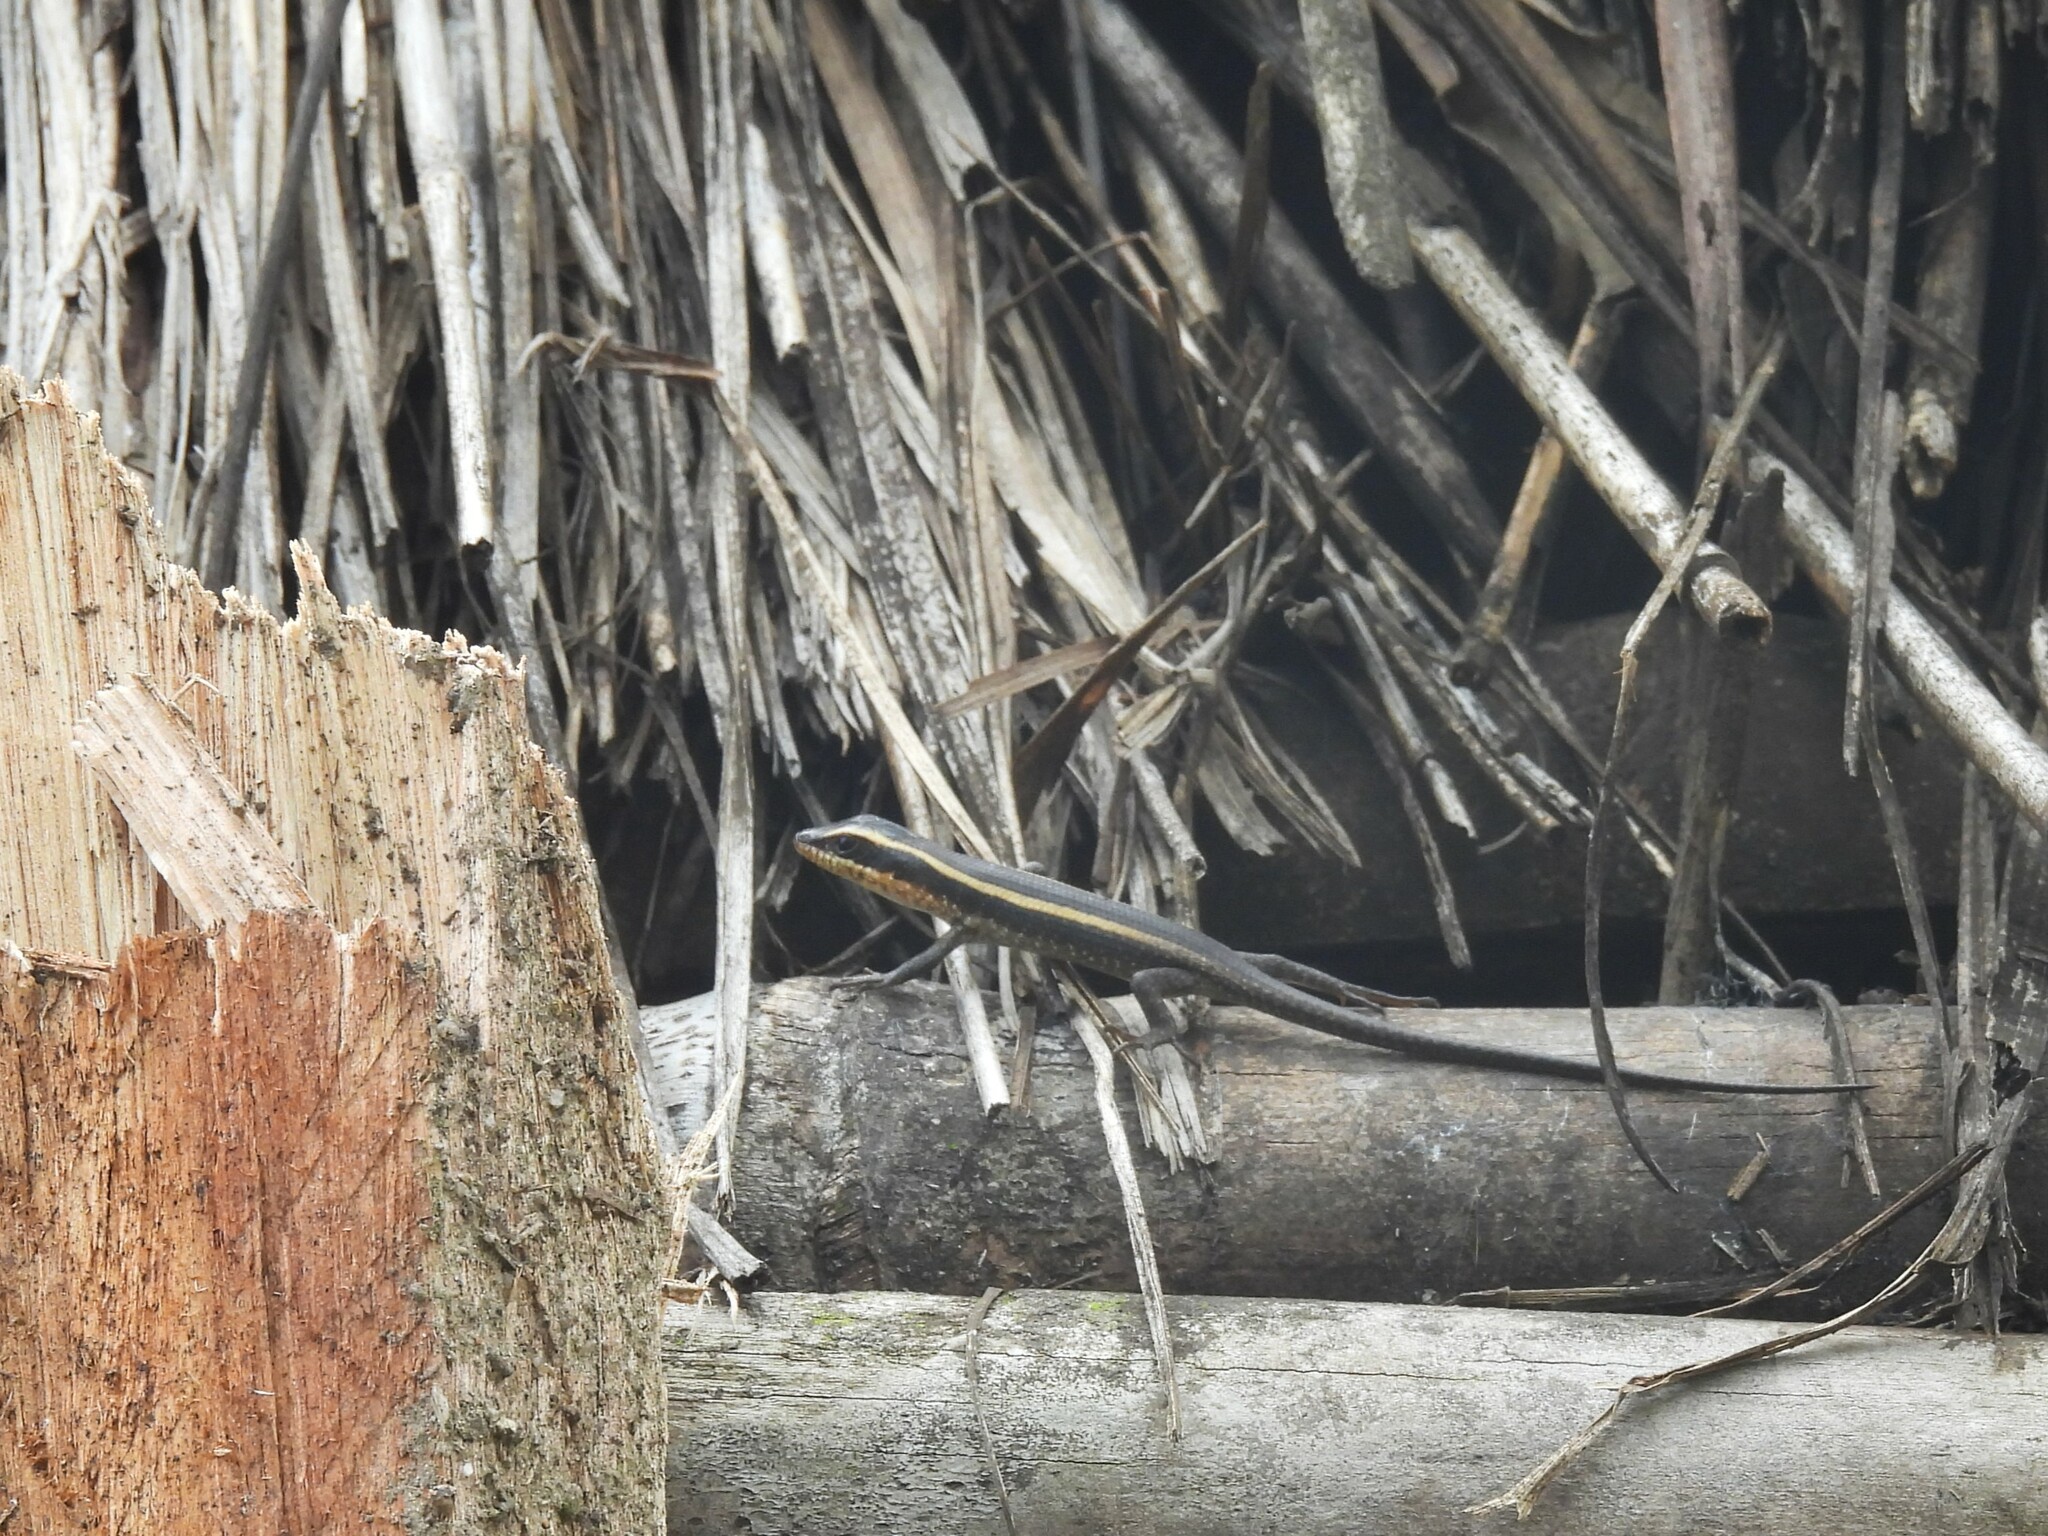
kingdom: Animalia
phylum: Chordata
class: Squamata
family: Scincidae
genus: Trachylepis
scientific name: Trachylepis striata
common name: African striped mabuya
